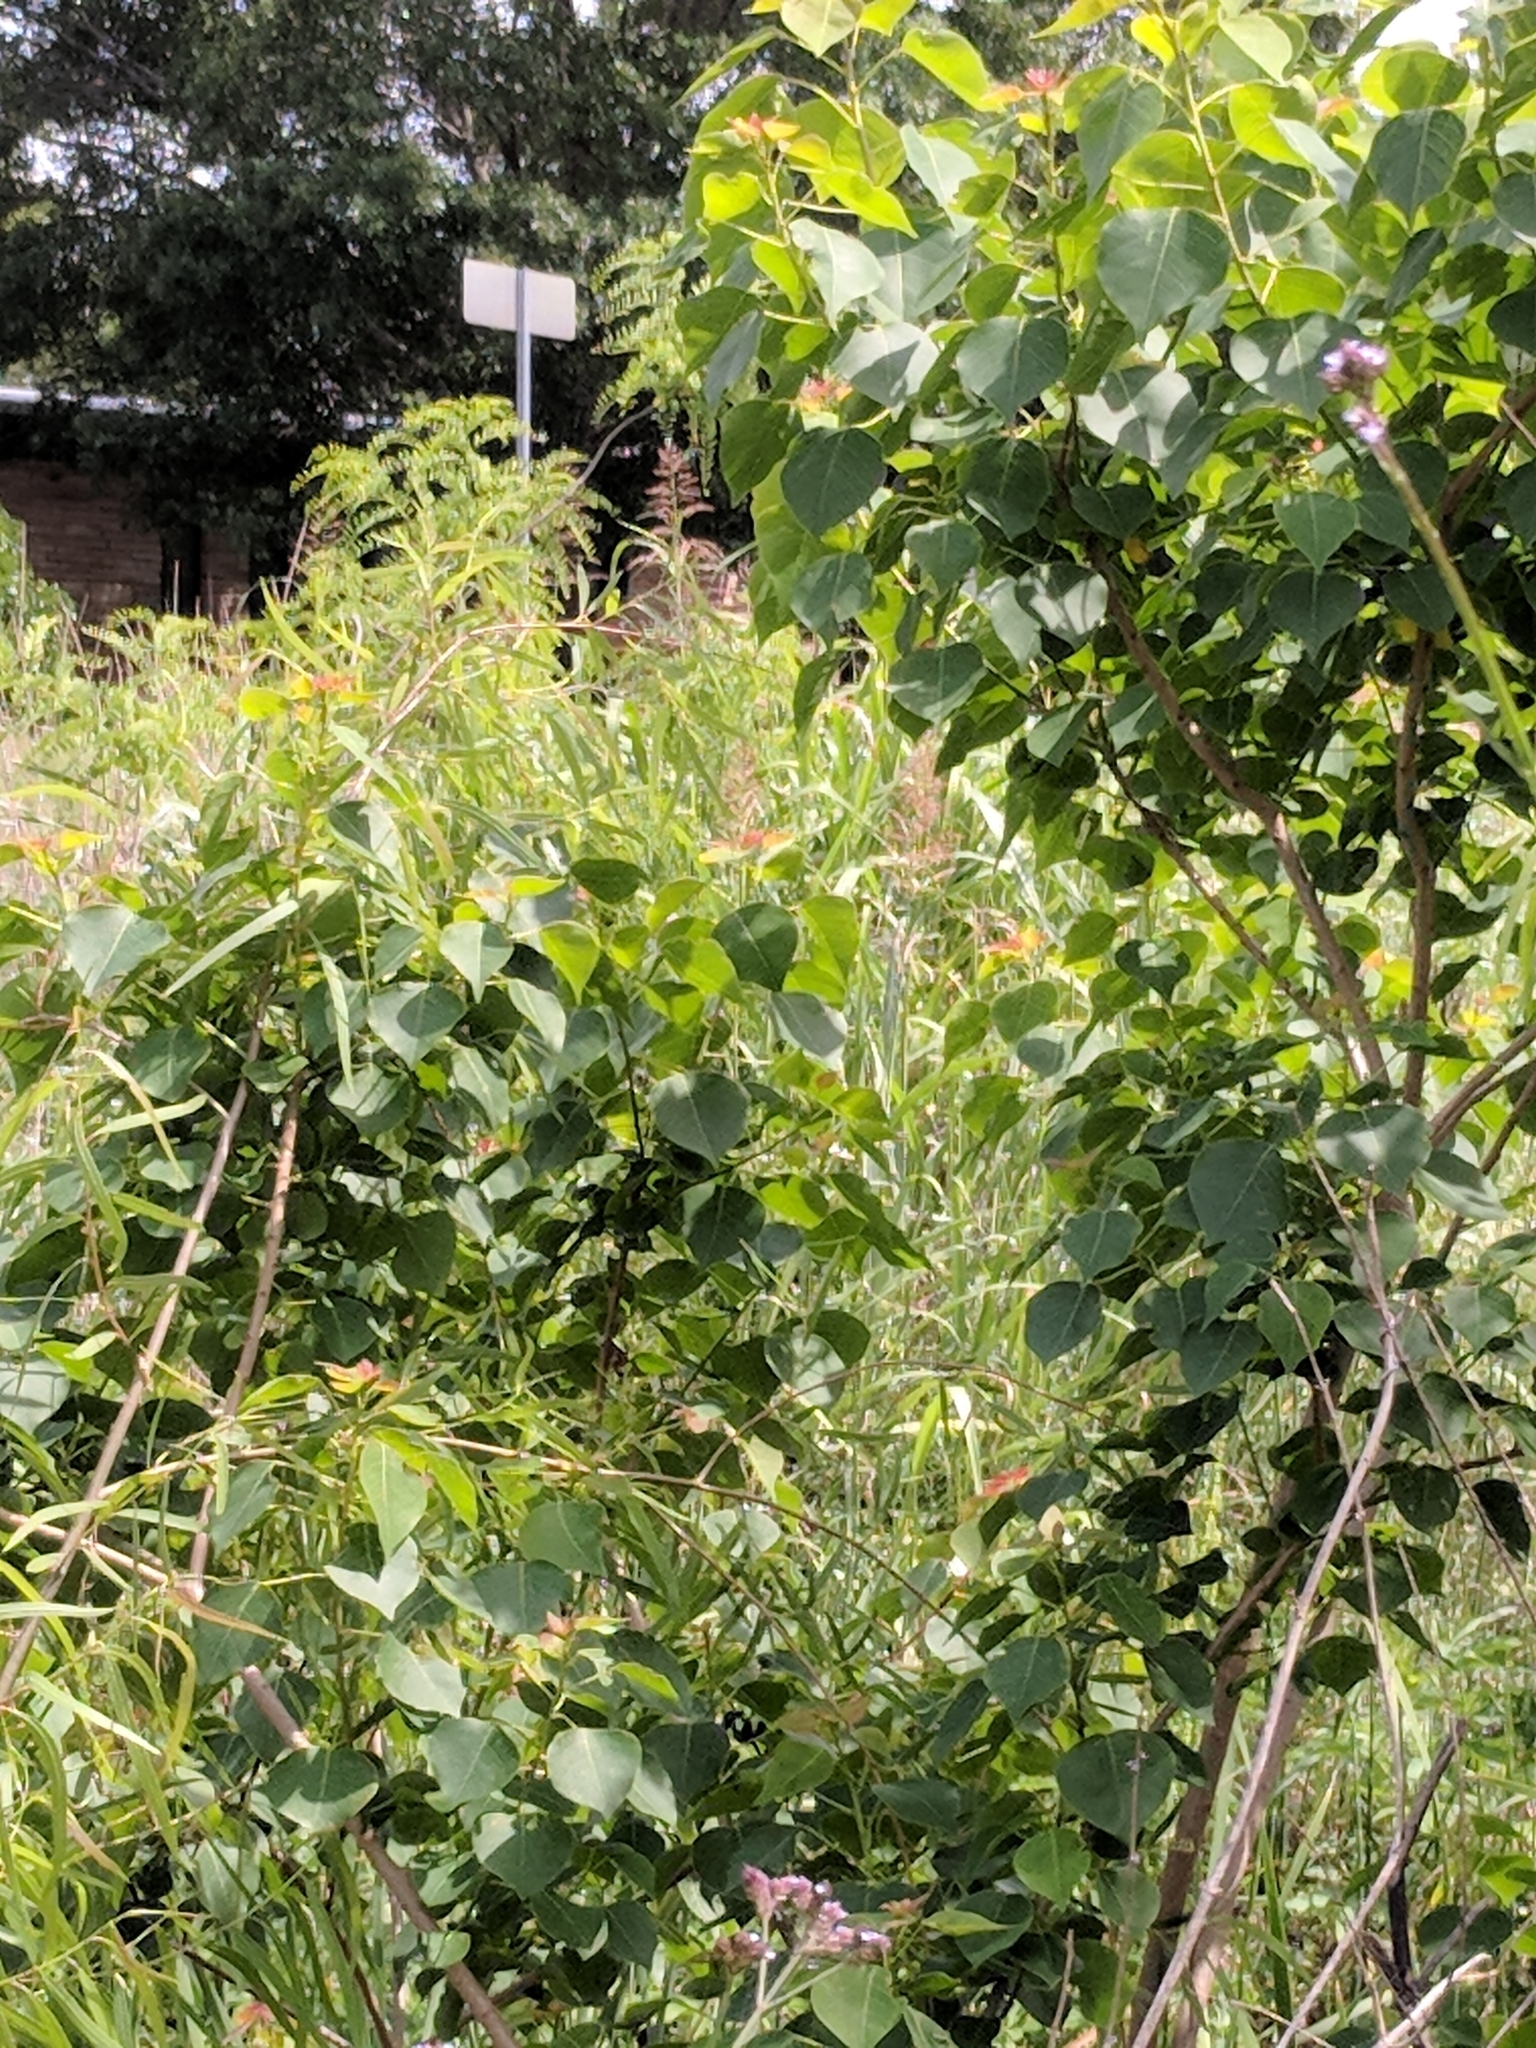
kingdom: Plantae
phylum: Tracheophyta
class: Magnoliopsida
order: Malpighiales
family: Euphorbiaceae
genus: Triadica
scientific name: Triadica sebifera
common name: Chinese tallow
